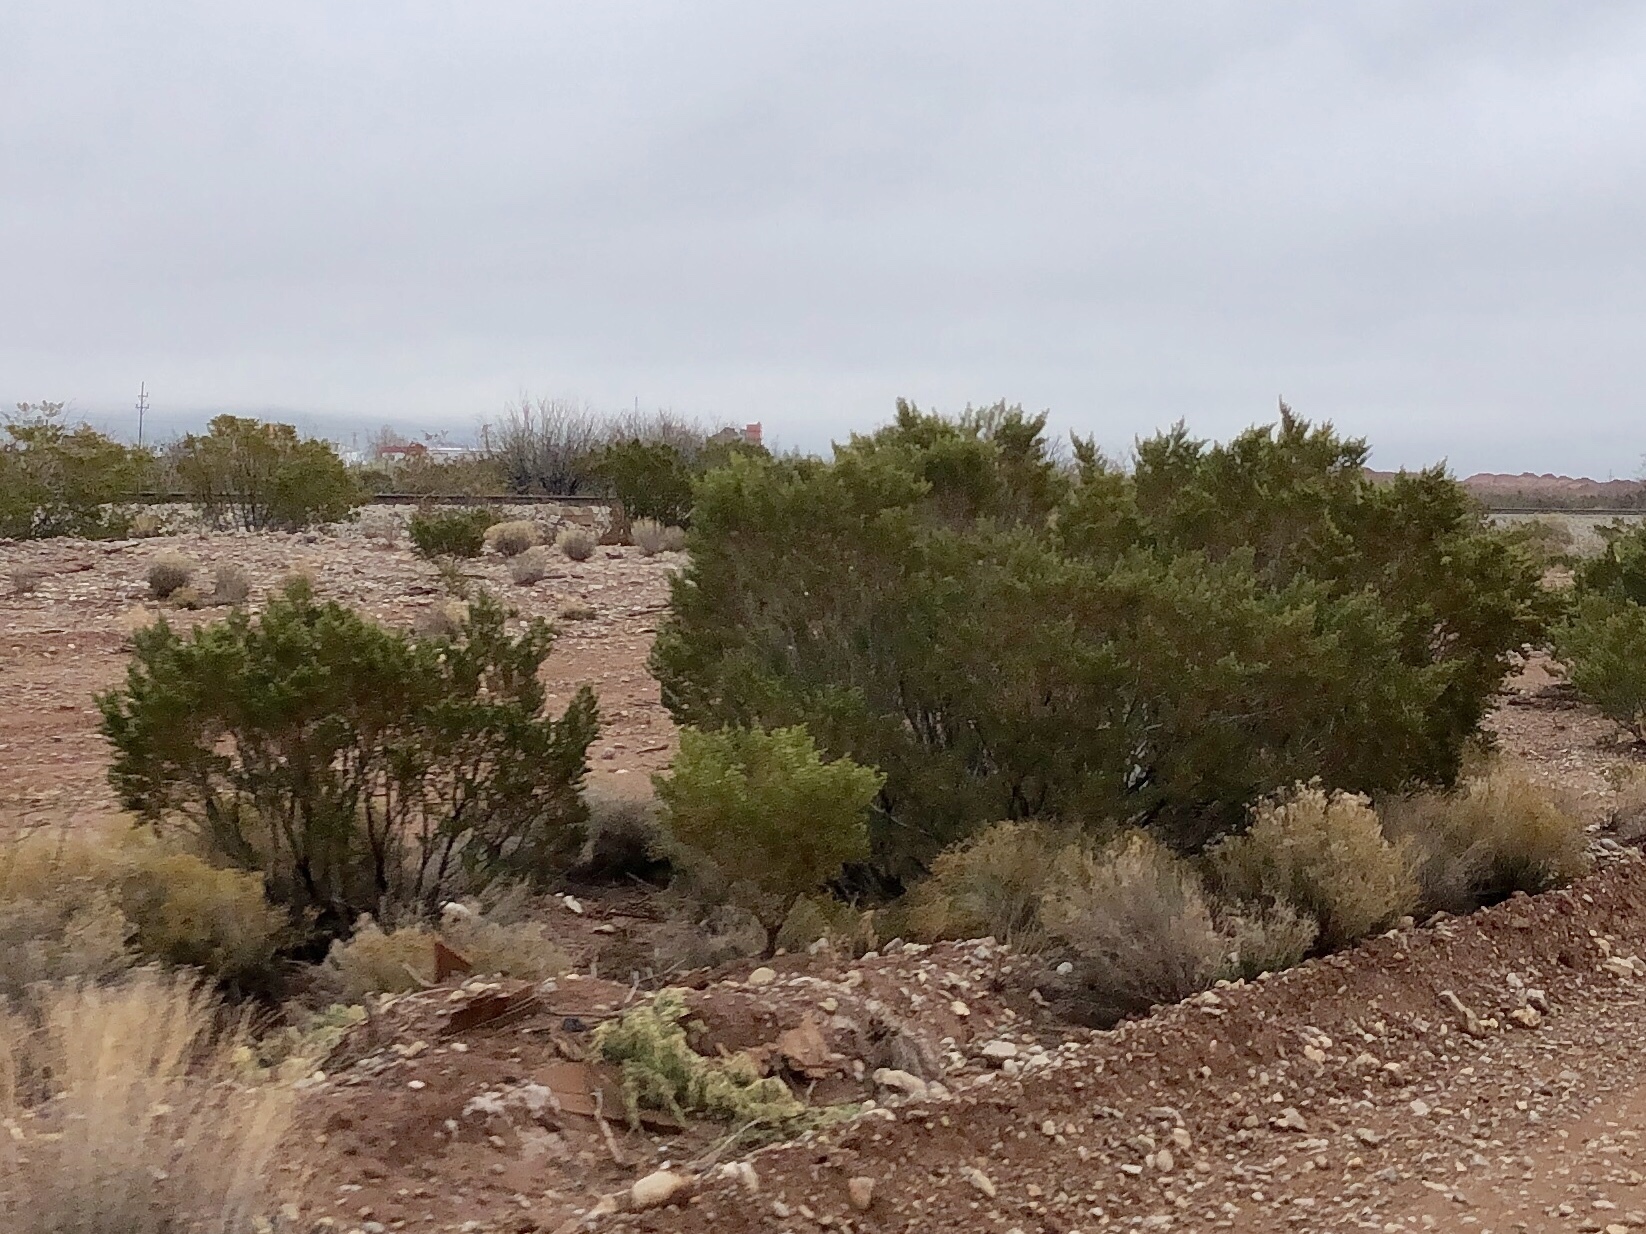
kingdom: Plantae
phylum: Tracheophyta
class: Magnoliopsida
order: Zygophyllales
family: Zygophyllaceae
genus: Larrea
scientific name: Larrea tridentata
